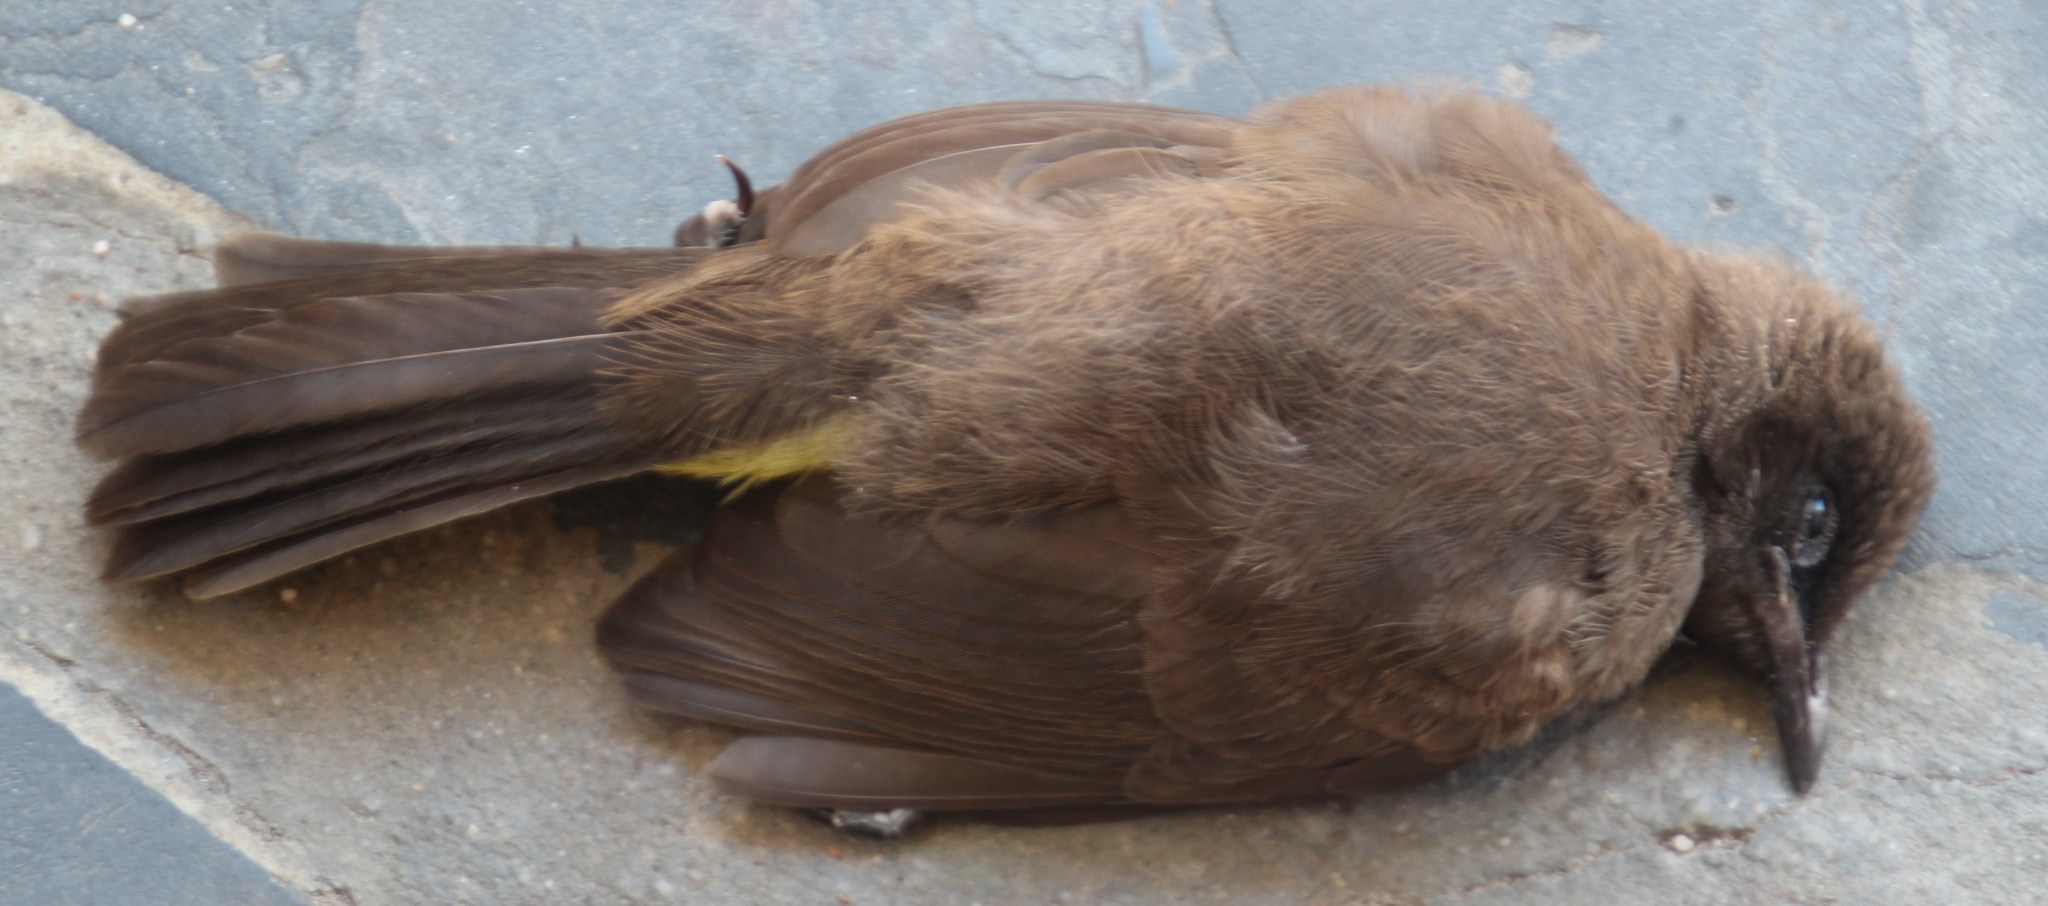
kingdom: Animalia
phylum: Chordata
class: Aves
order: Passeriformes
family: Pycnonotidae
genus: Pycnonotus
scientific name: Pycnonotus capensis
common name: Cape bulbul
